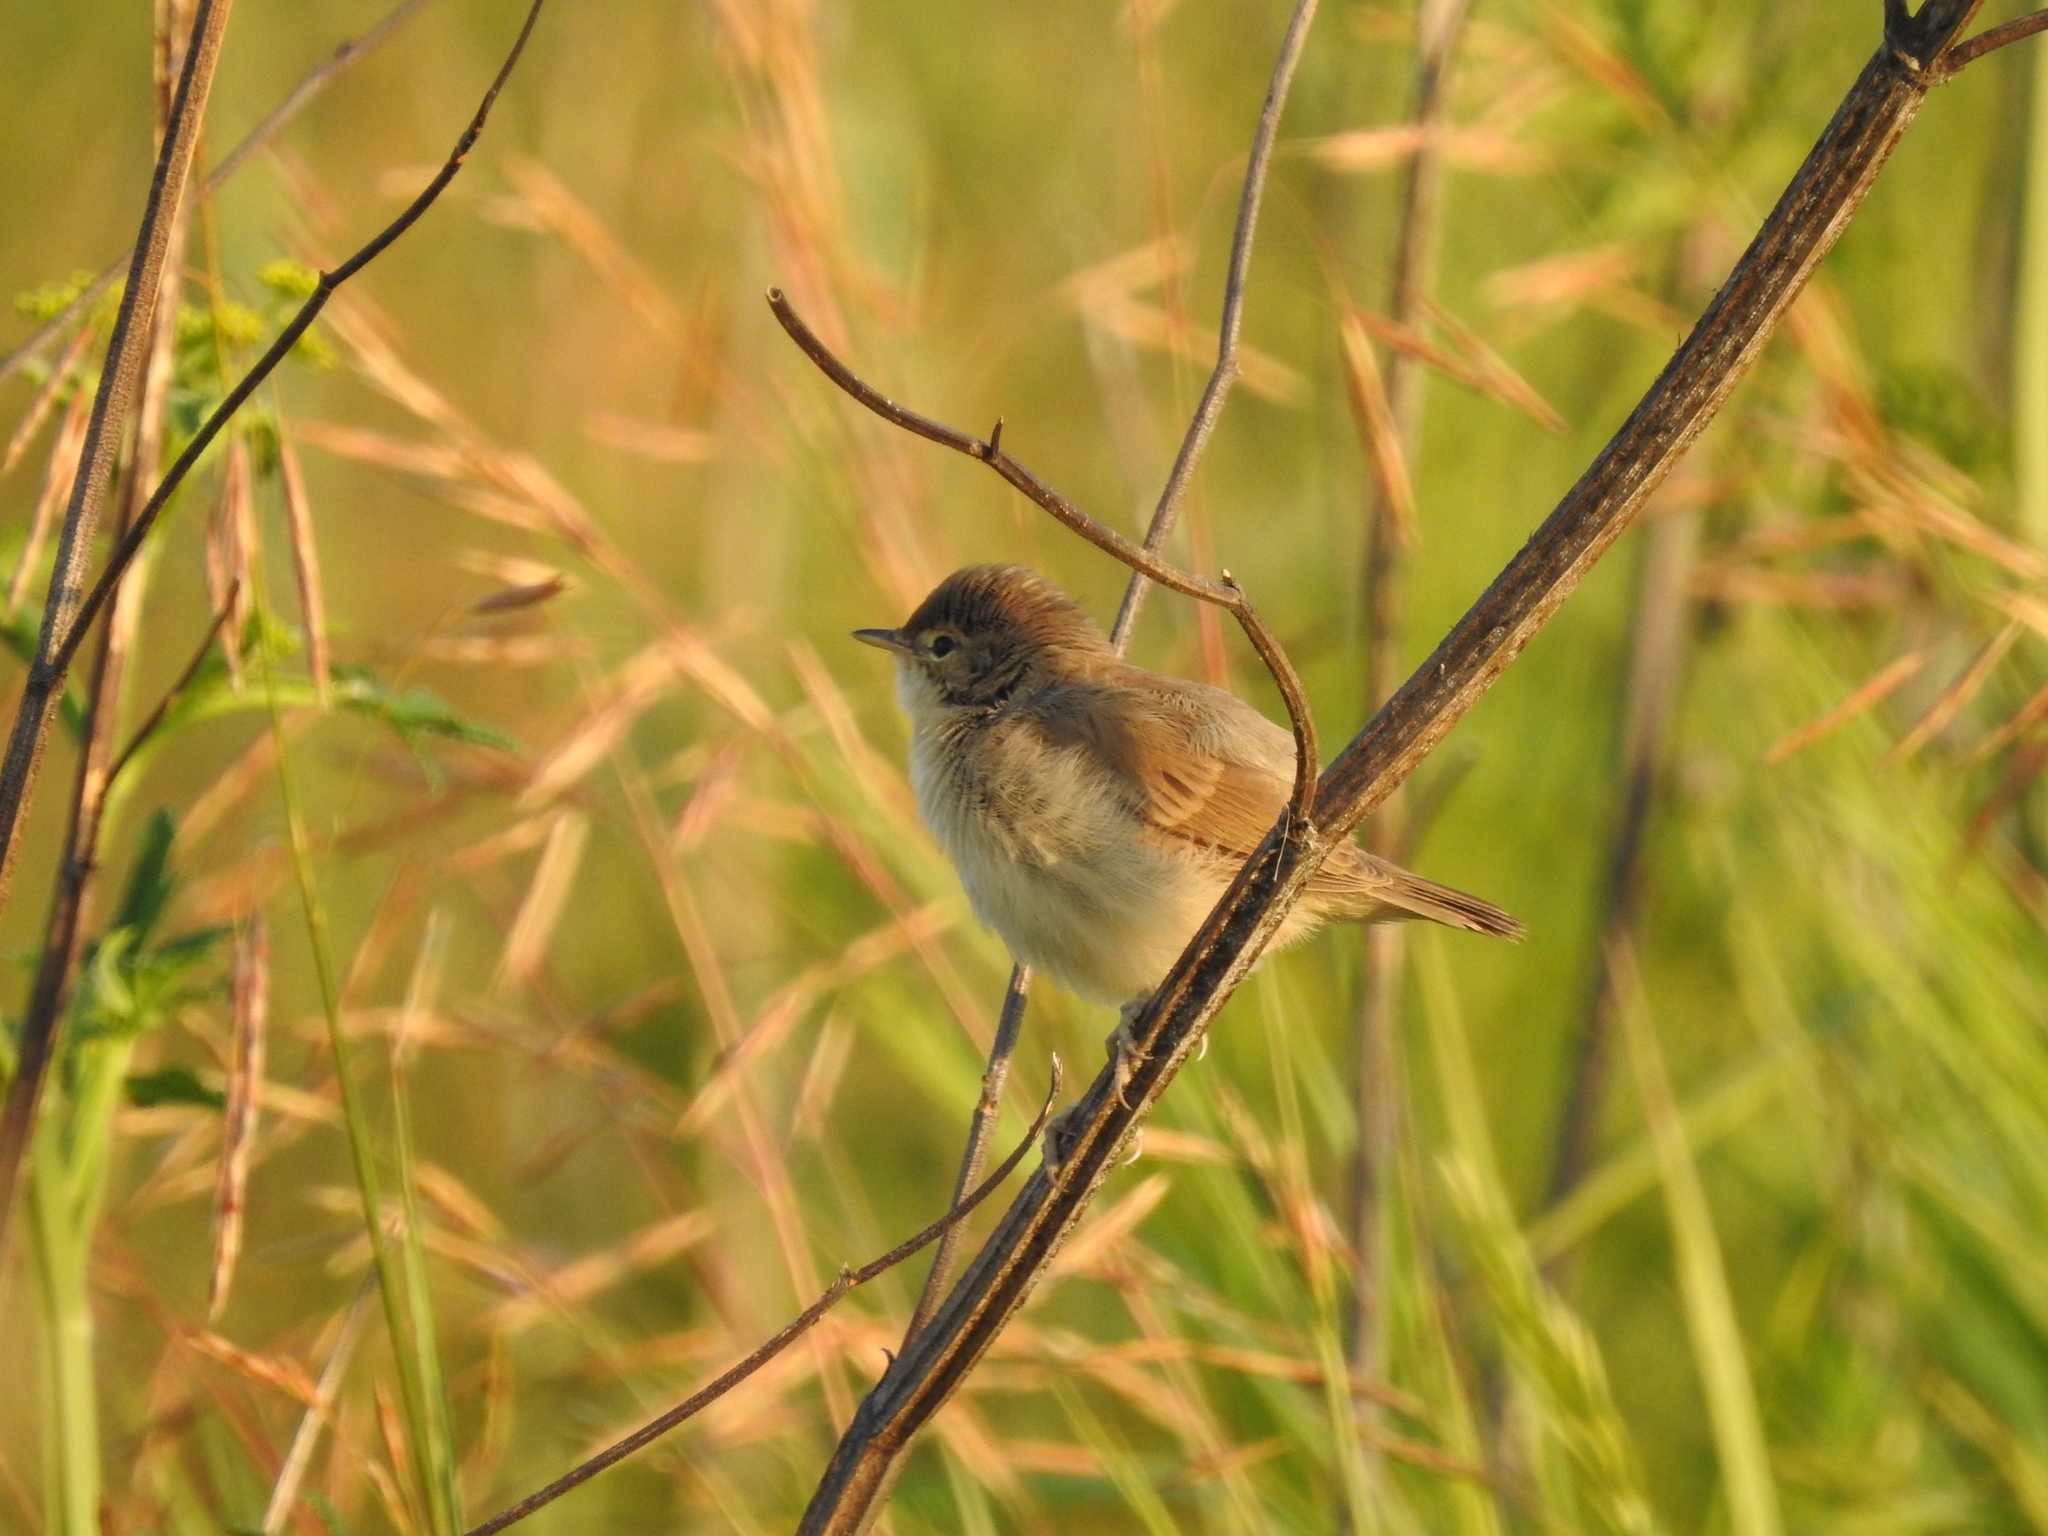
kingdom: Animalia
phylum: Chordata
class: Aves
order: Passeriformes
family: Acrocephalidae
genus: Acrocephalus
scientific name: Acrocephalus dumetorum
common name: Blyth's reed warbler
